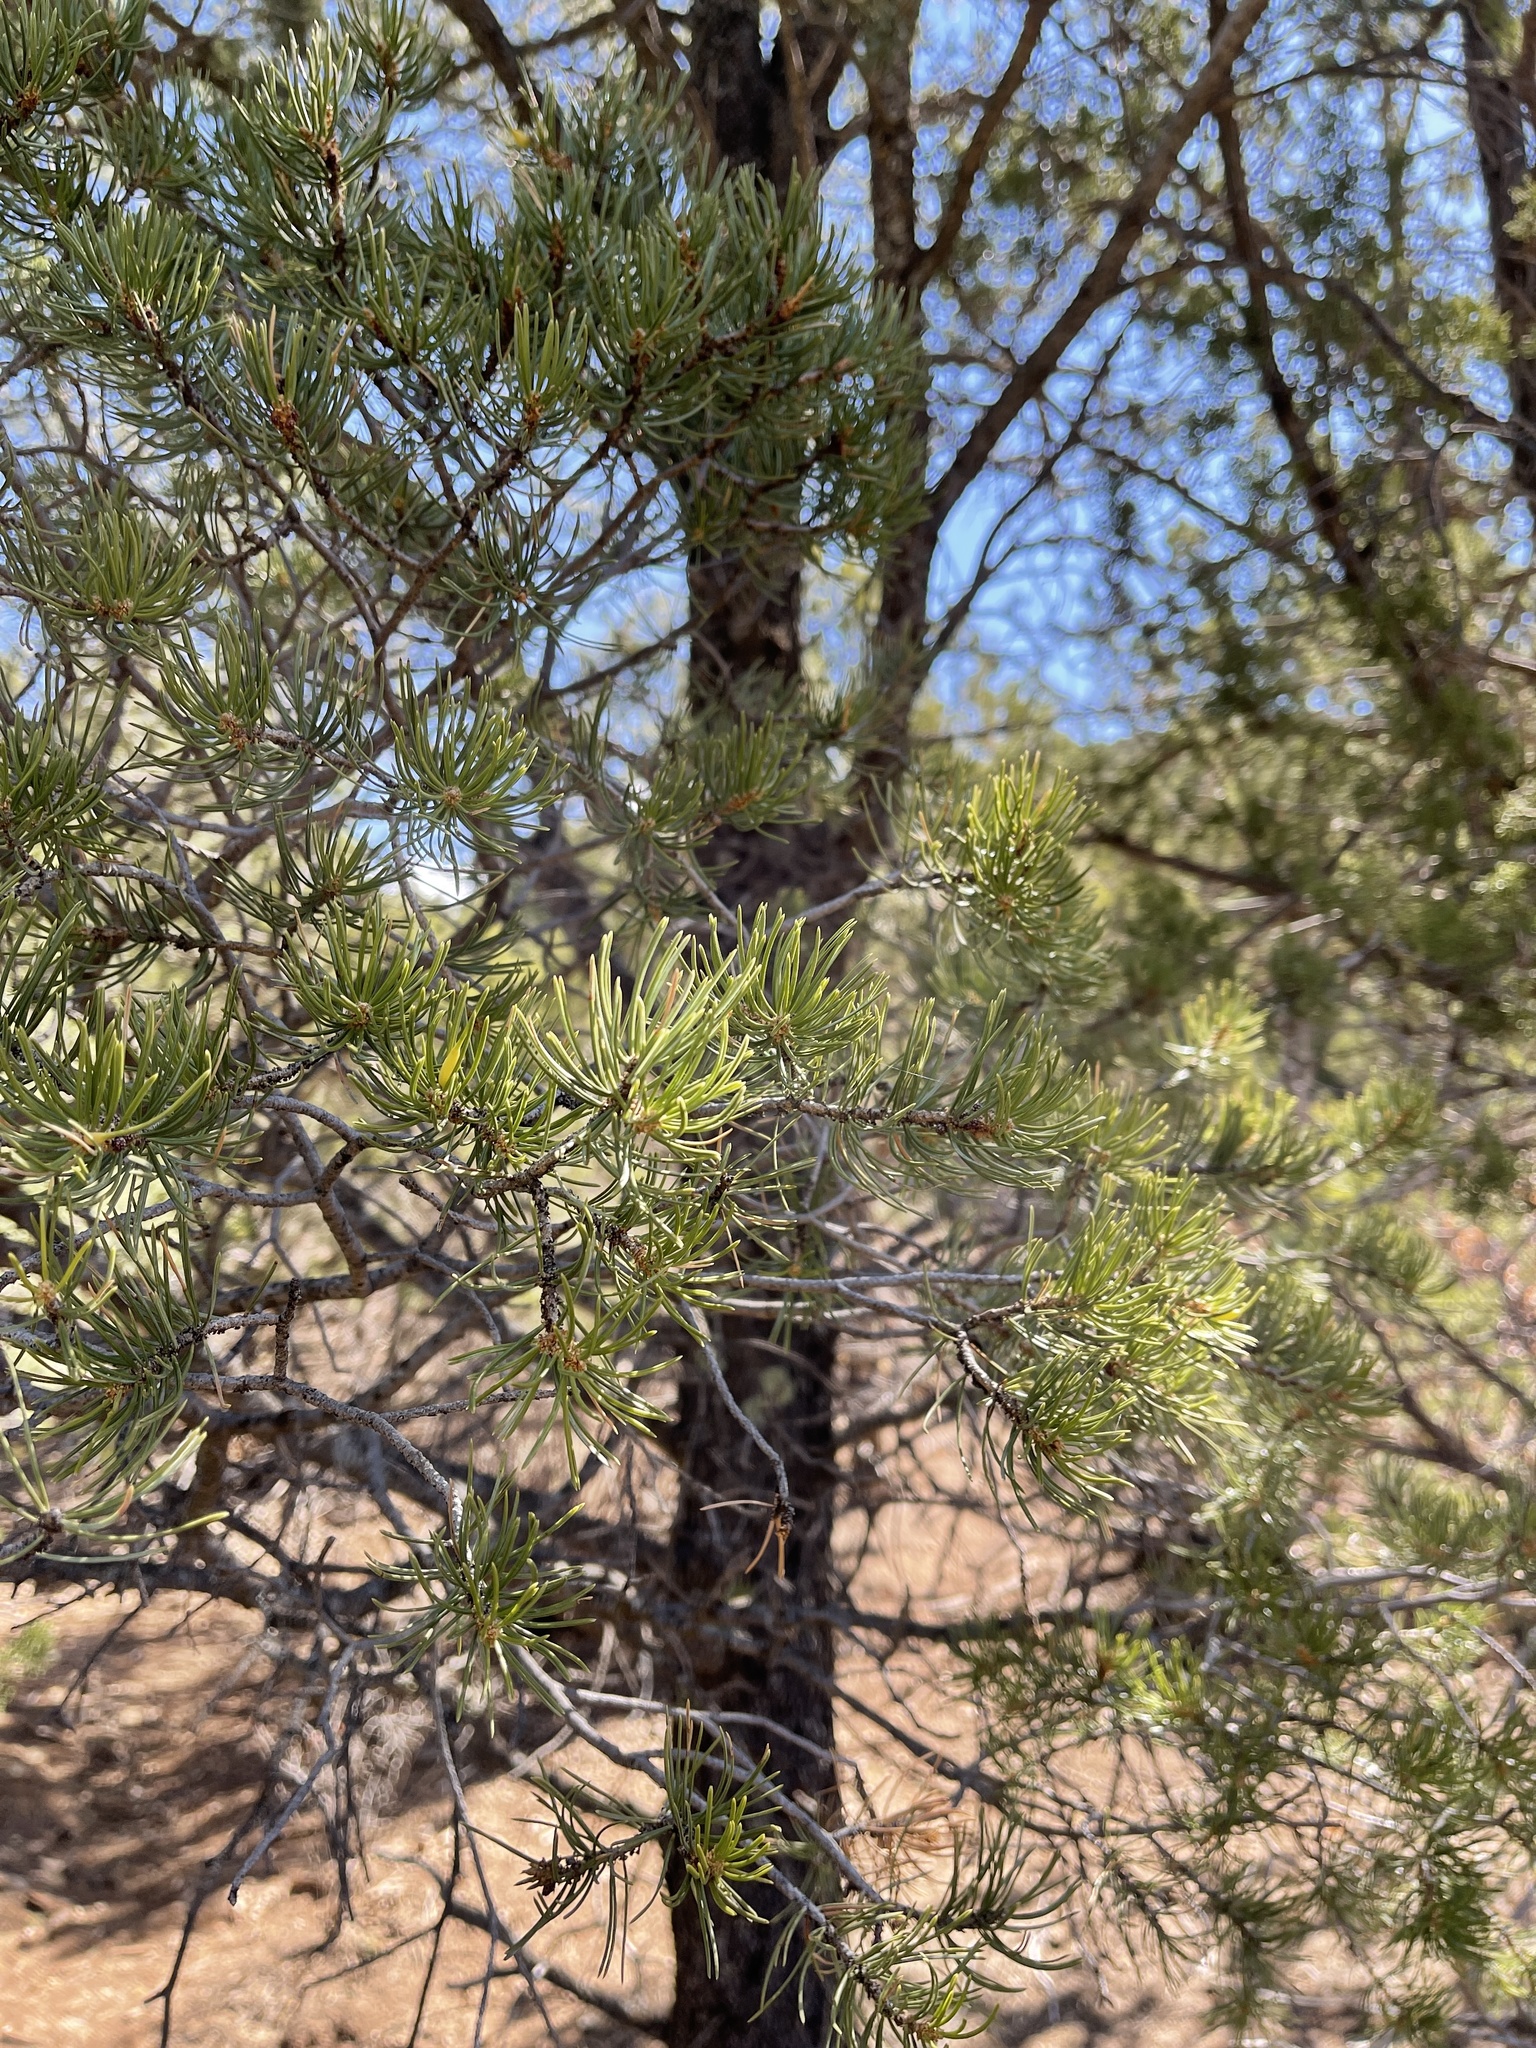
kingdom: Plantae
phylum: Tracheophyta
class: Pinopsida
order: Pinales
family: Pinaceae
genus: Pinus
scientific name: Pinus edulis
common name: Colorado pinyon
